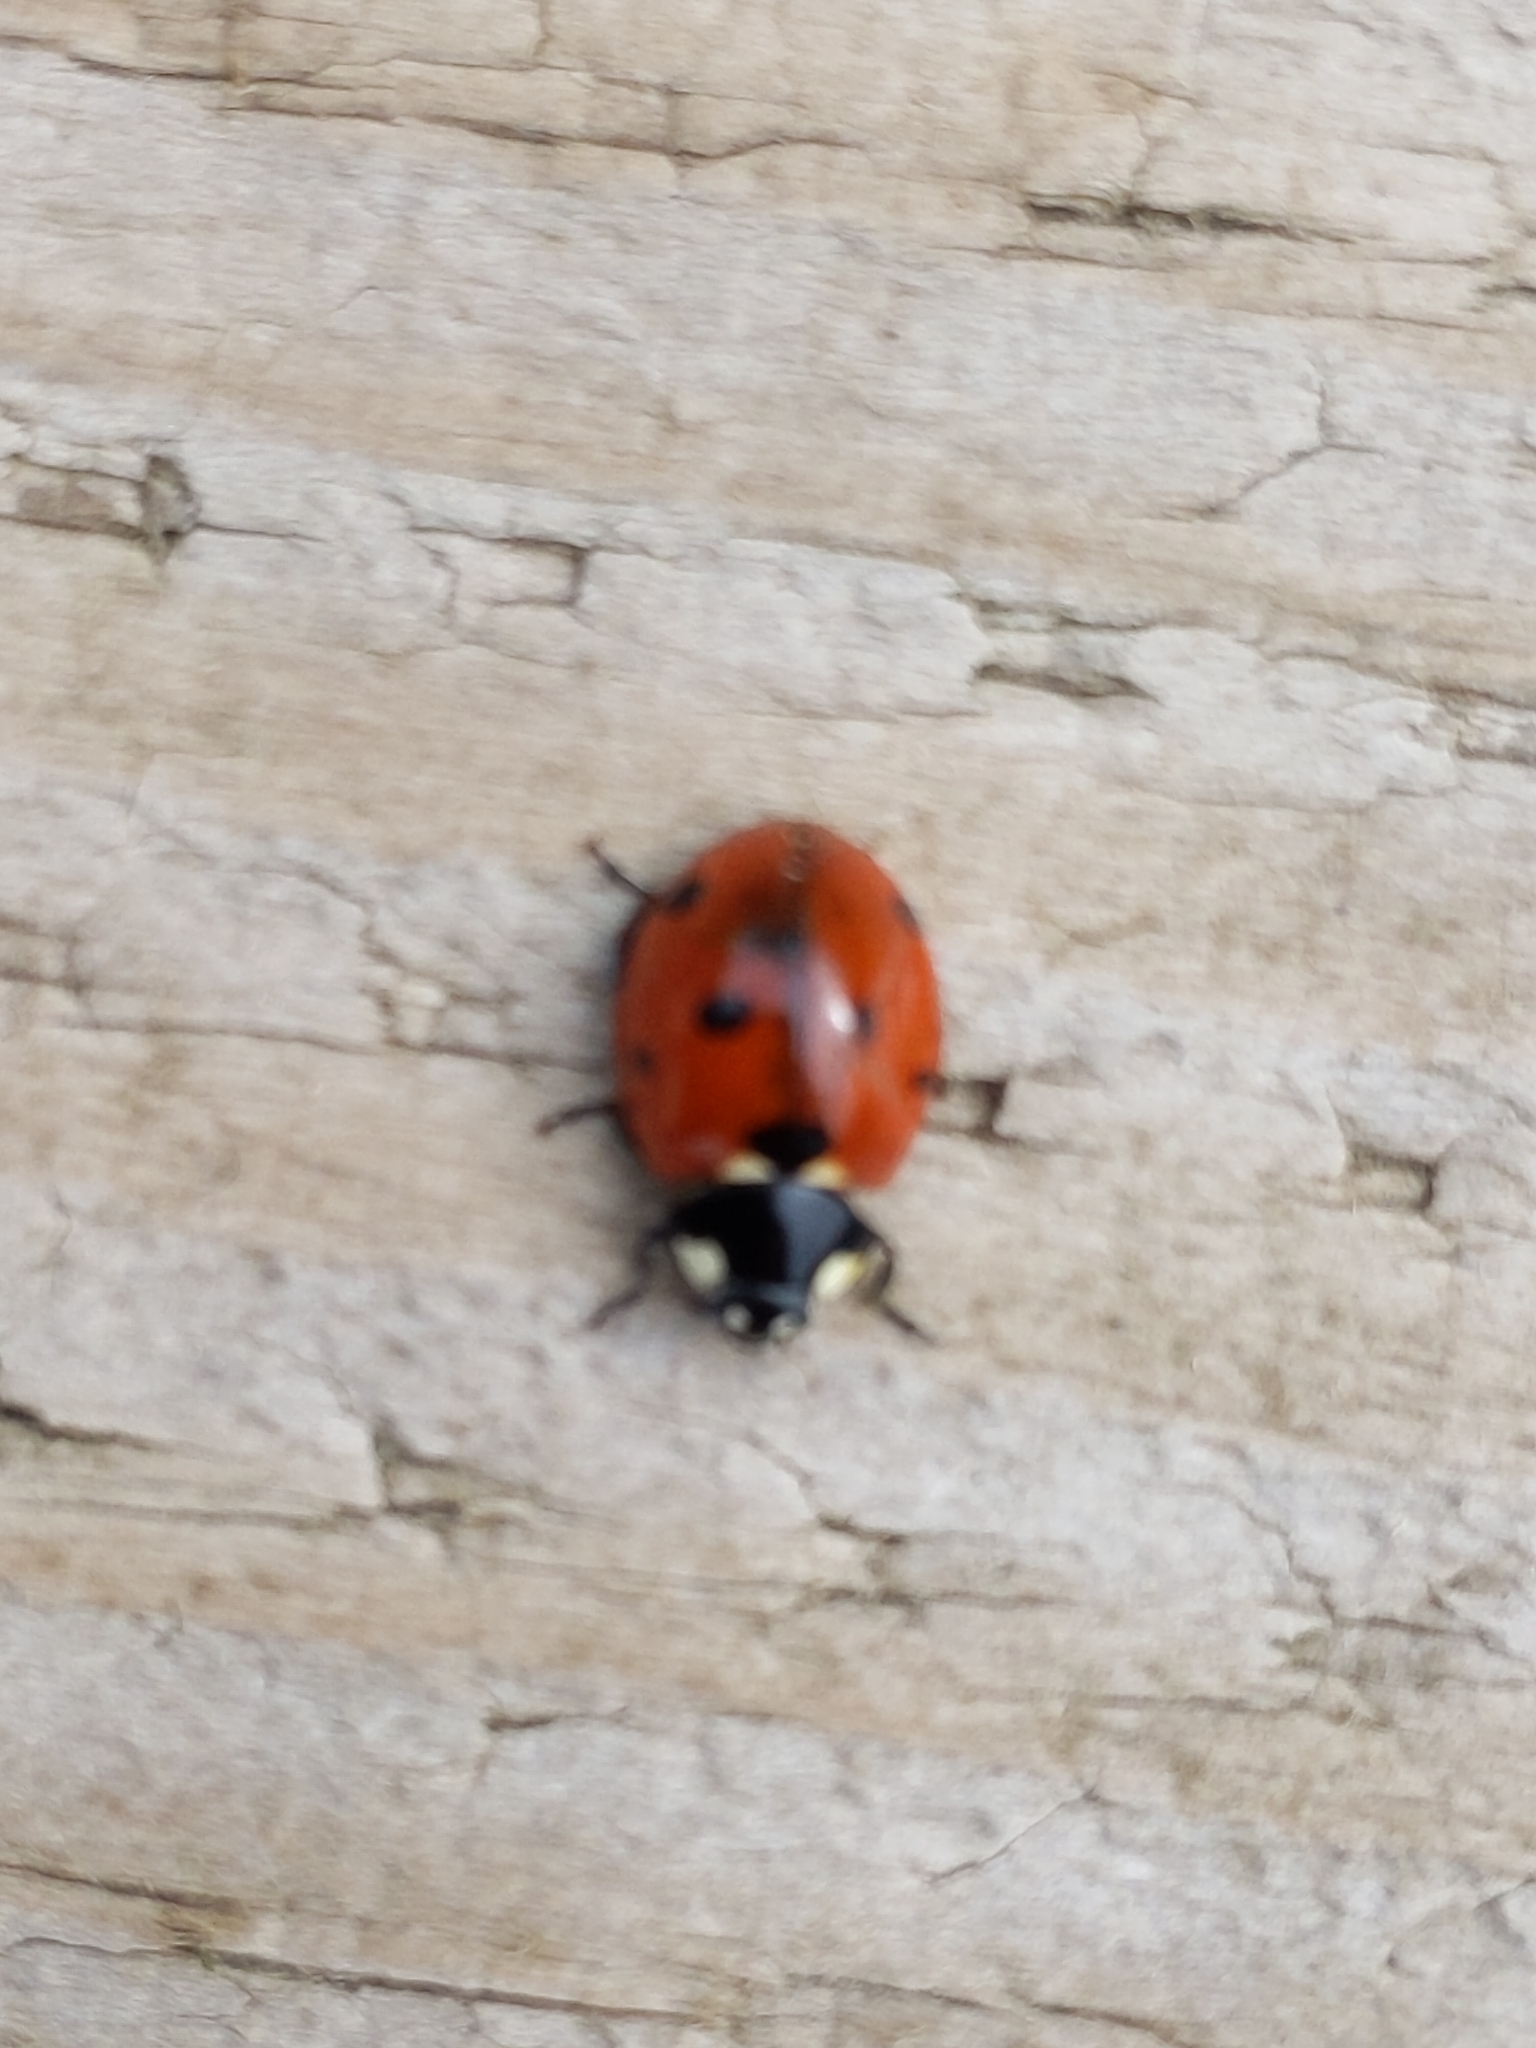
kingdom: Animalia
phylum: Arthropoda
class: Insecta
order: Coleoptera
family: Coccinellidae
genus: Coccinella
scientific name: Coccinella septempunctata
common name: Sevenspotted lady beetle
